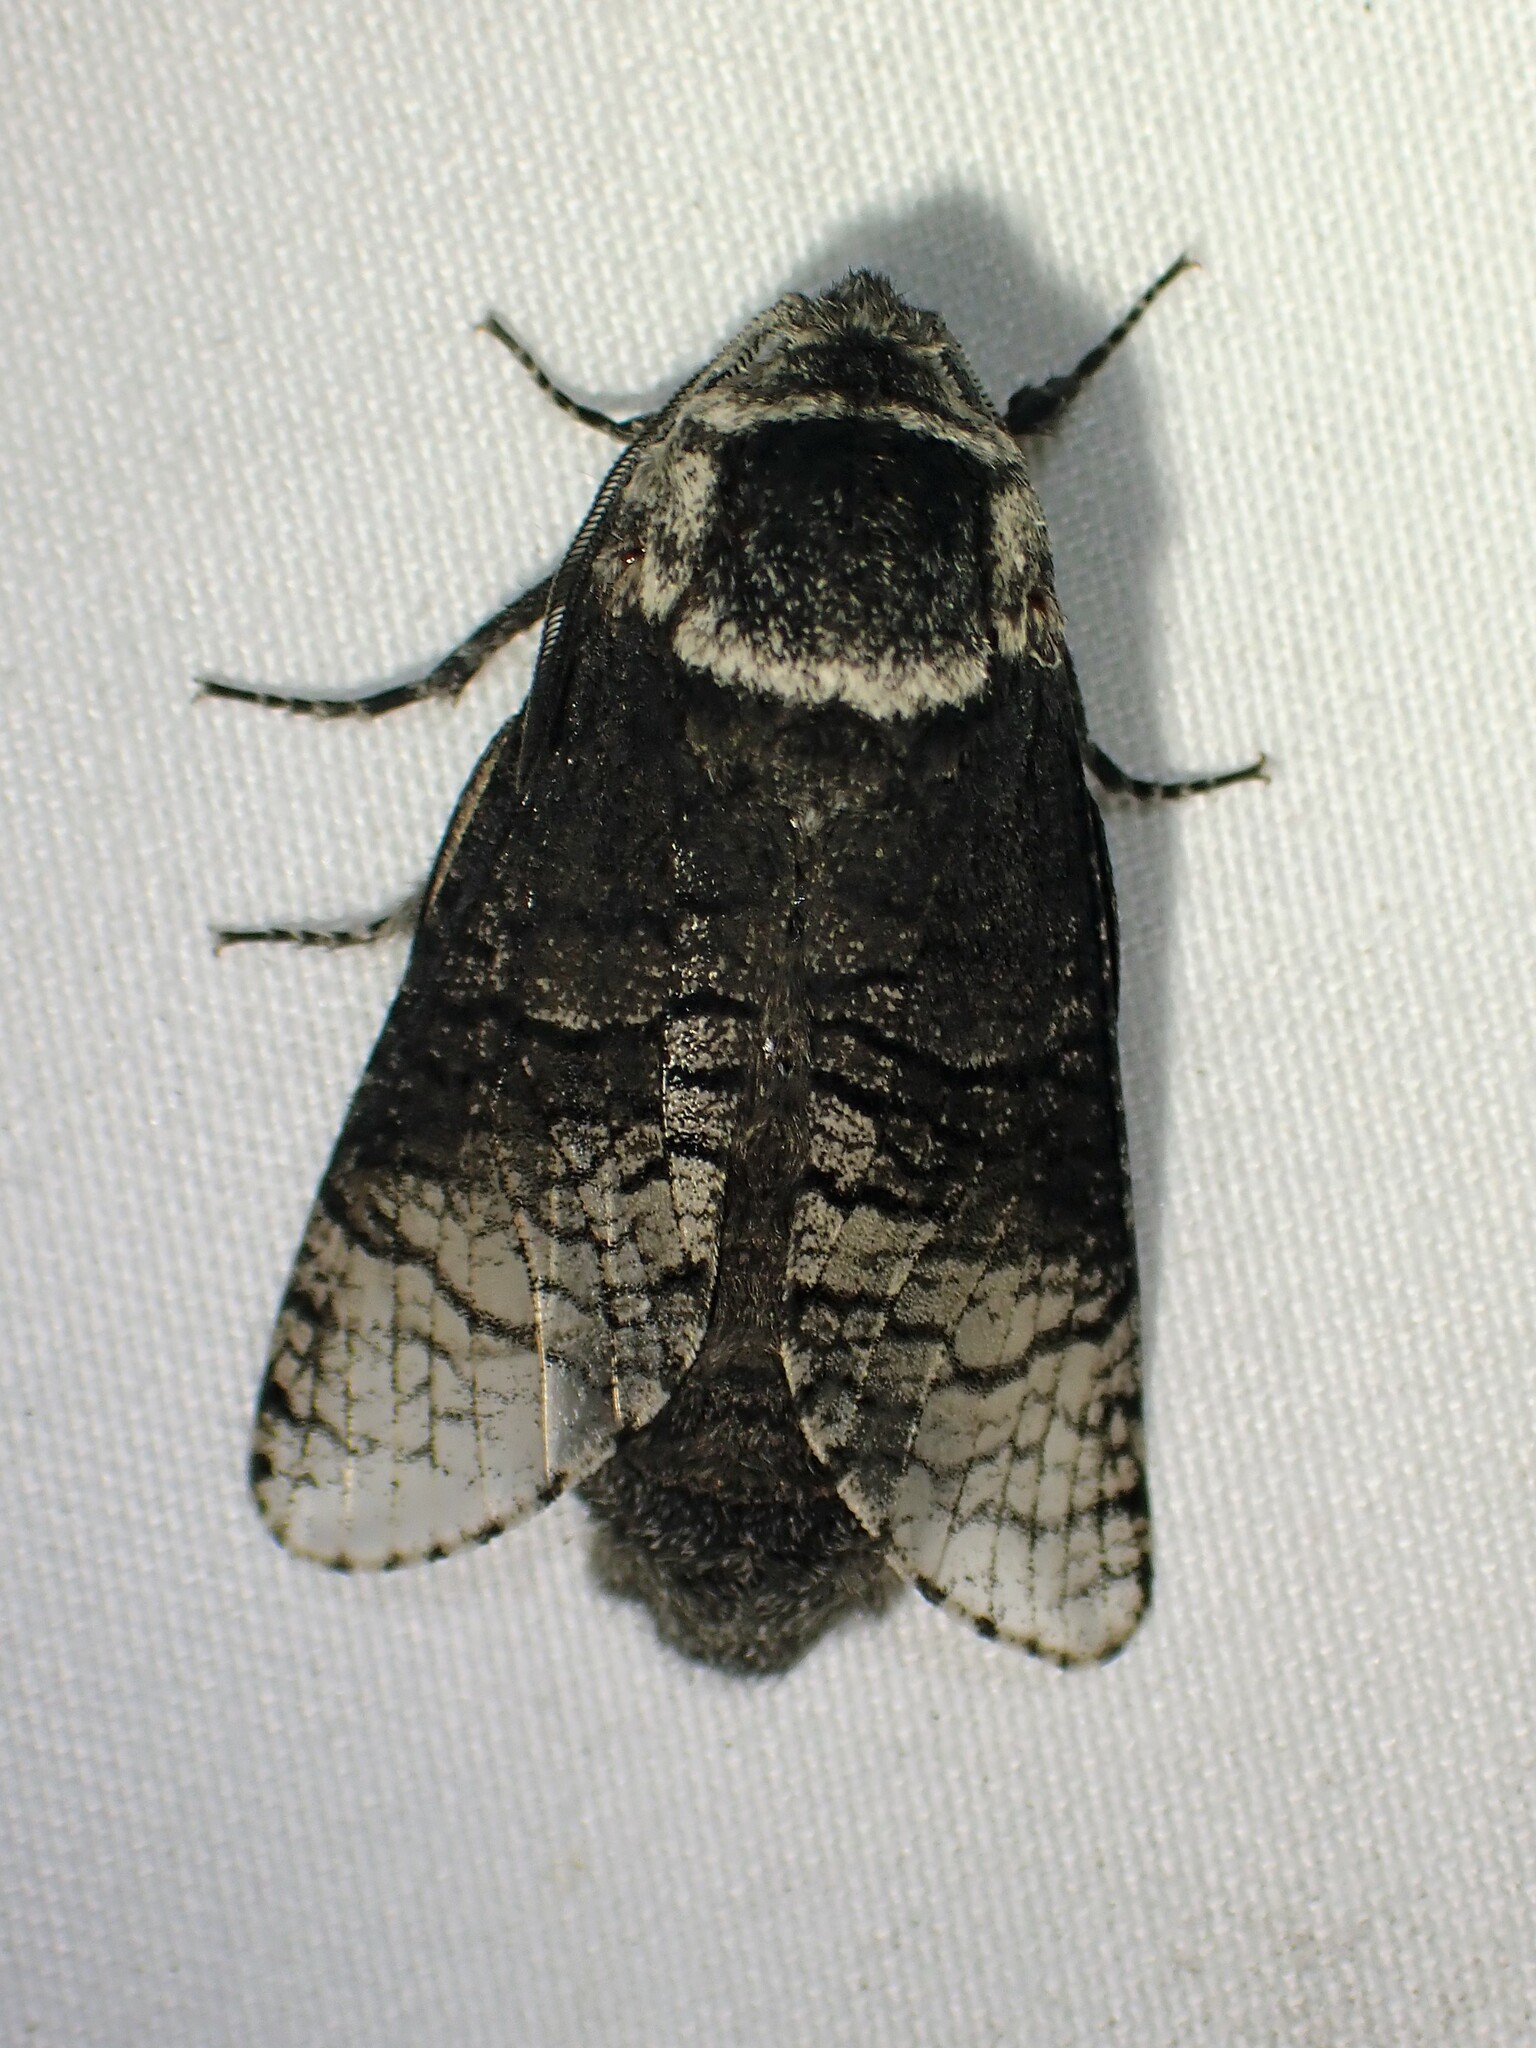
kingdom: Animalia
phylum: Arthropoda
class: Insecta
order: Lepidoptera
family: Cossidae
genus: Acossus
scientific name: Acossus centerensis
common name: Poplar carpenterworm moth
